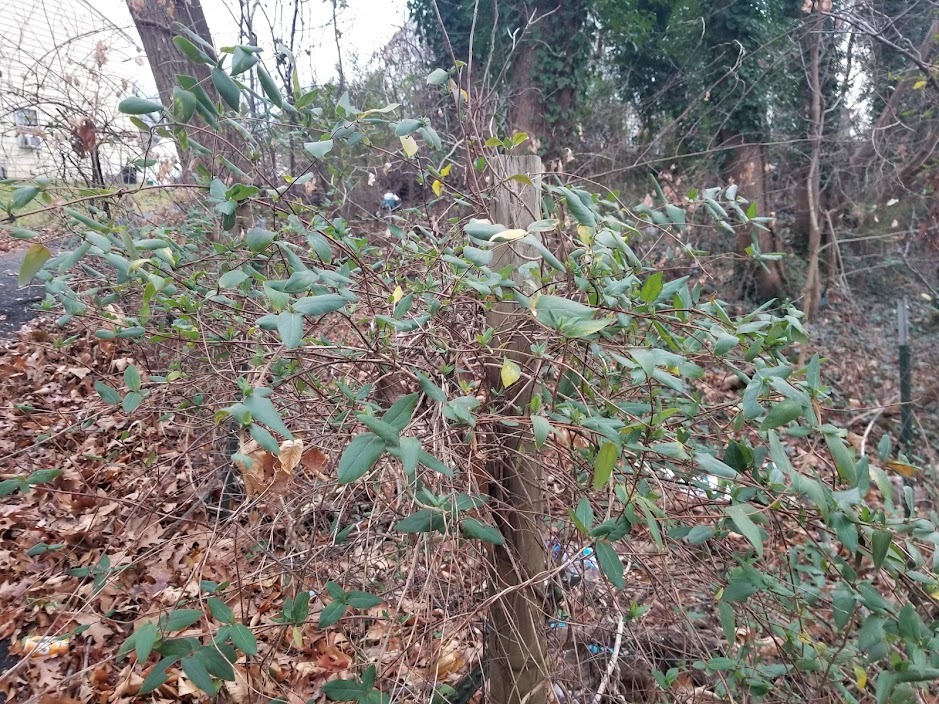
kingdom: Plantae
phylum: Tracheophyta
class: Magnoliopsida
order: Dipsacales
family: Caprifoliaceae
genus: Lonicera
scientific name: Lonicera japonica
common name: Japanese honeysuckle
